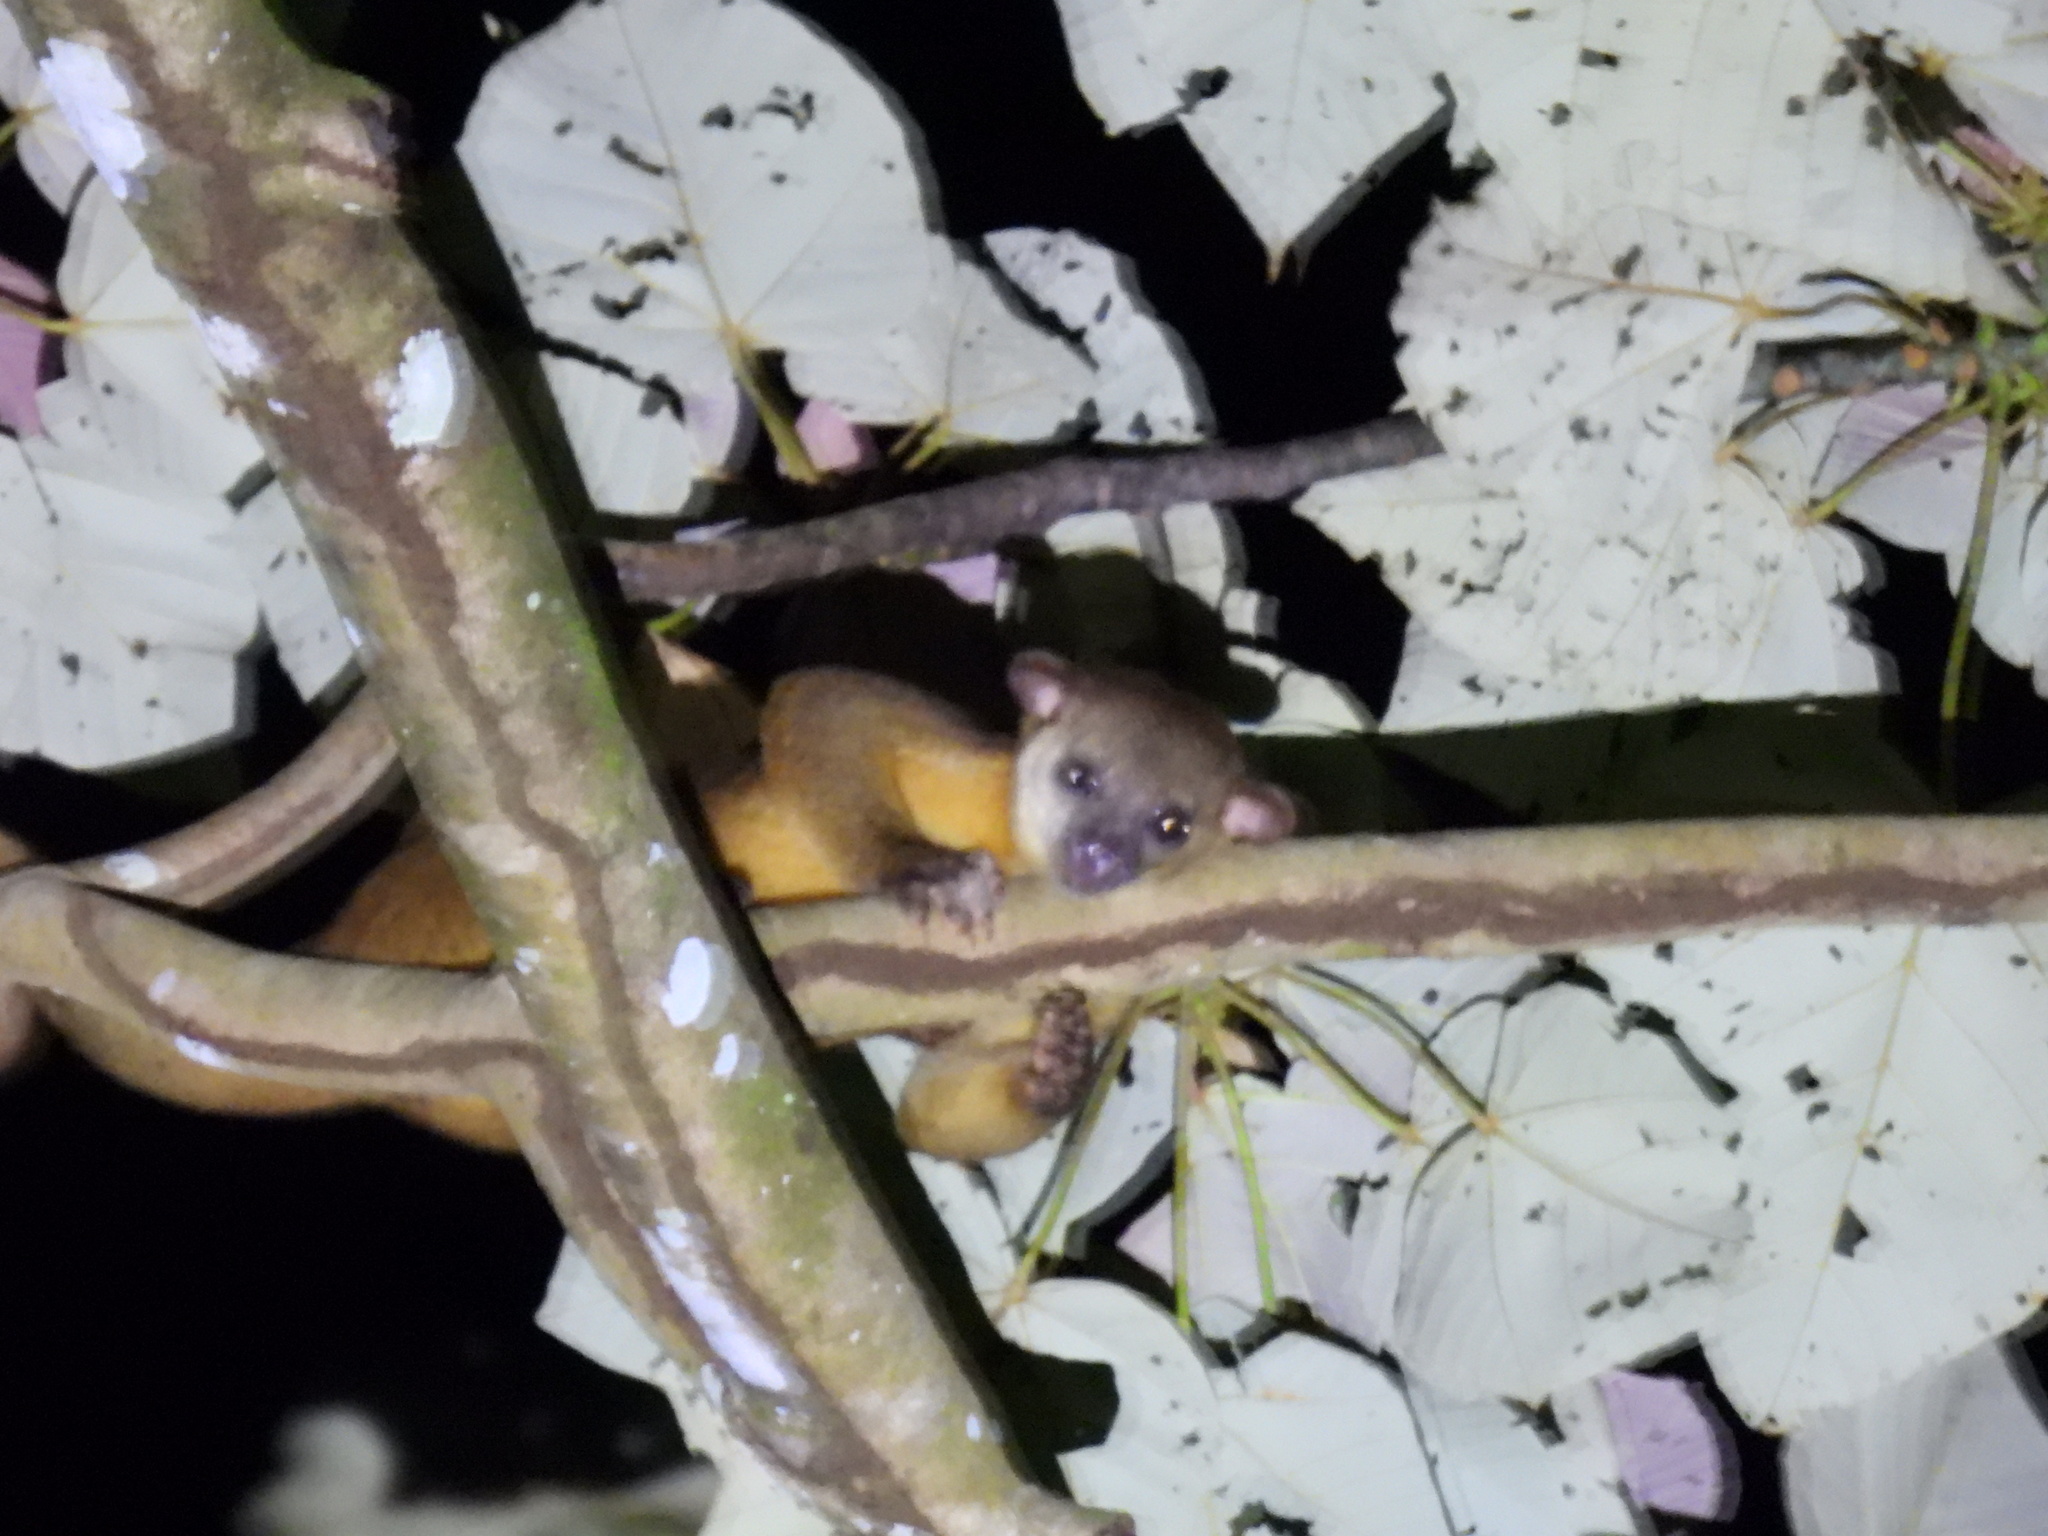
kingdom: Animalia
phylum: Chordata
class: Mammalia
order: Carnivora
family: Procyonidae
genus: Potos
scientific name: Potos flavus
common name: Kinkajou
